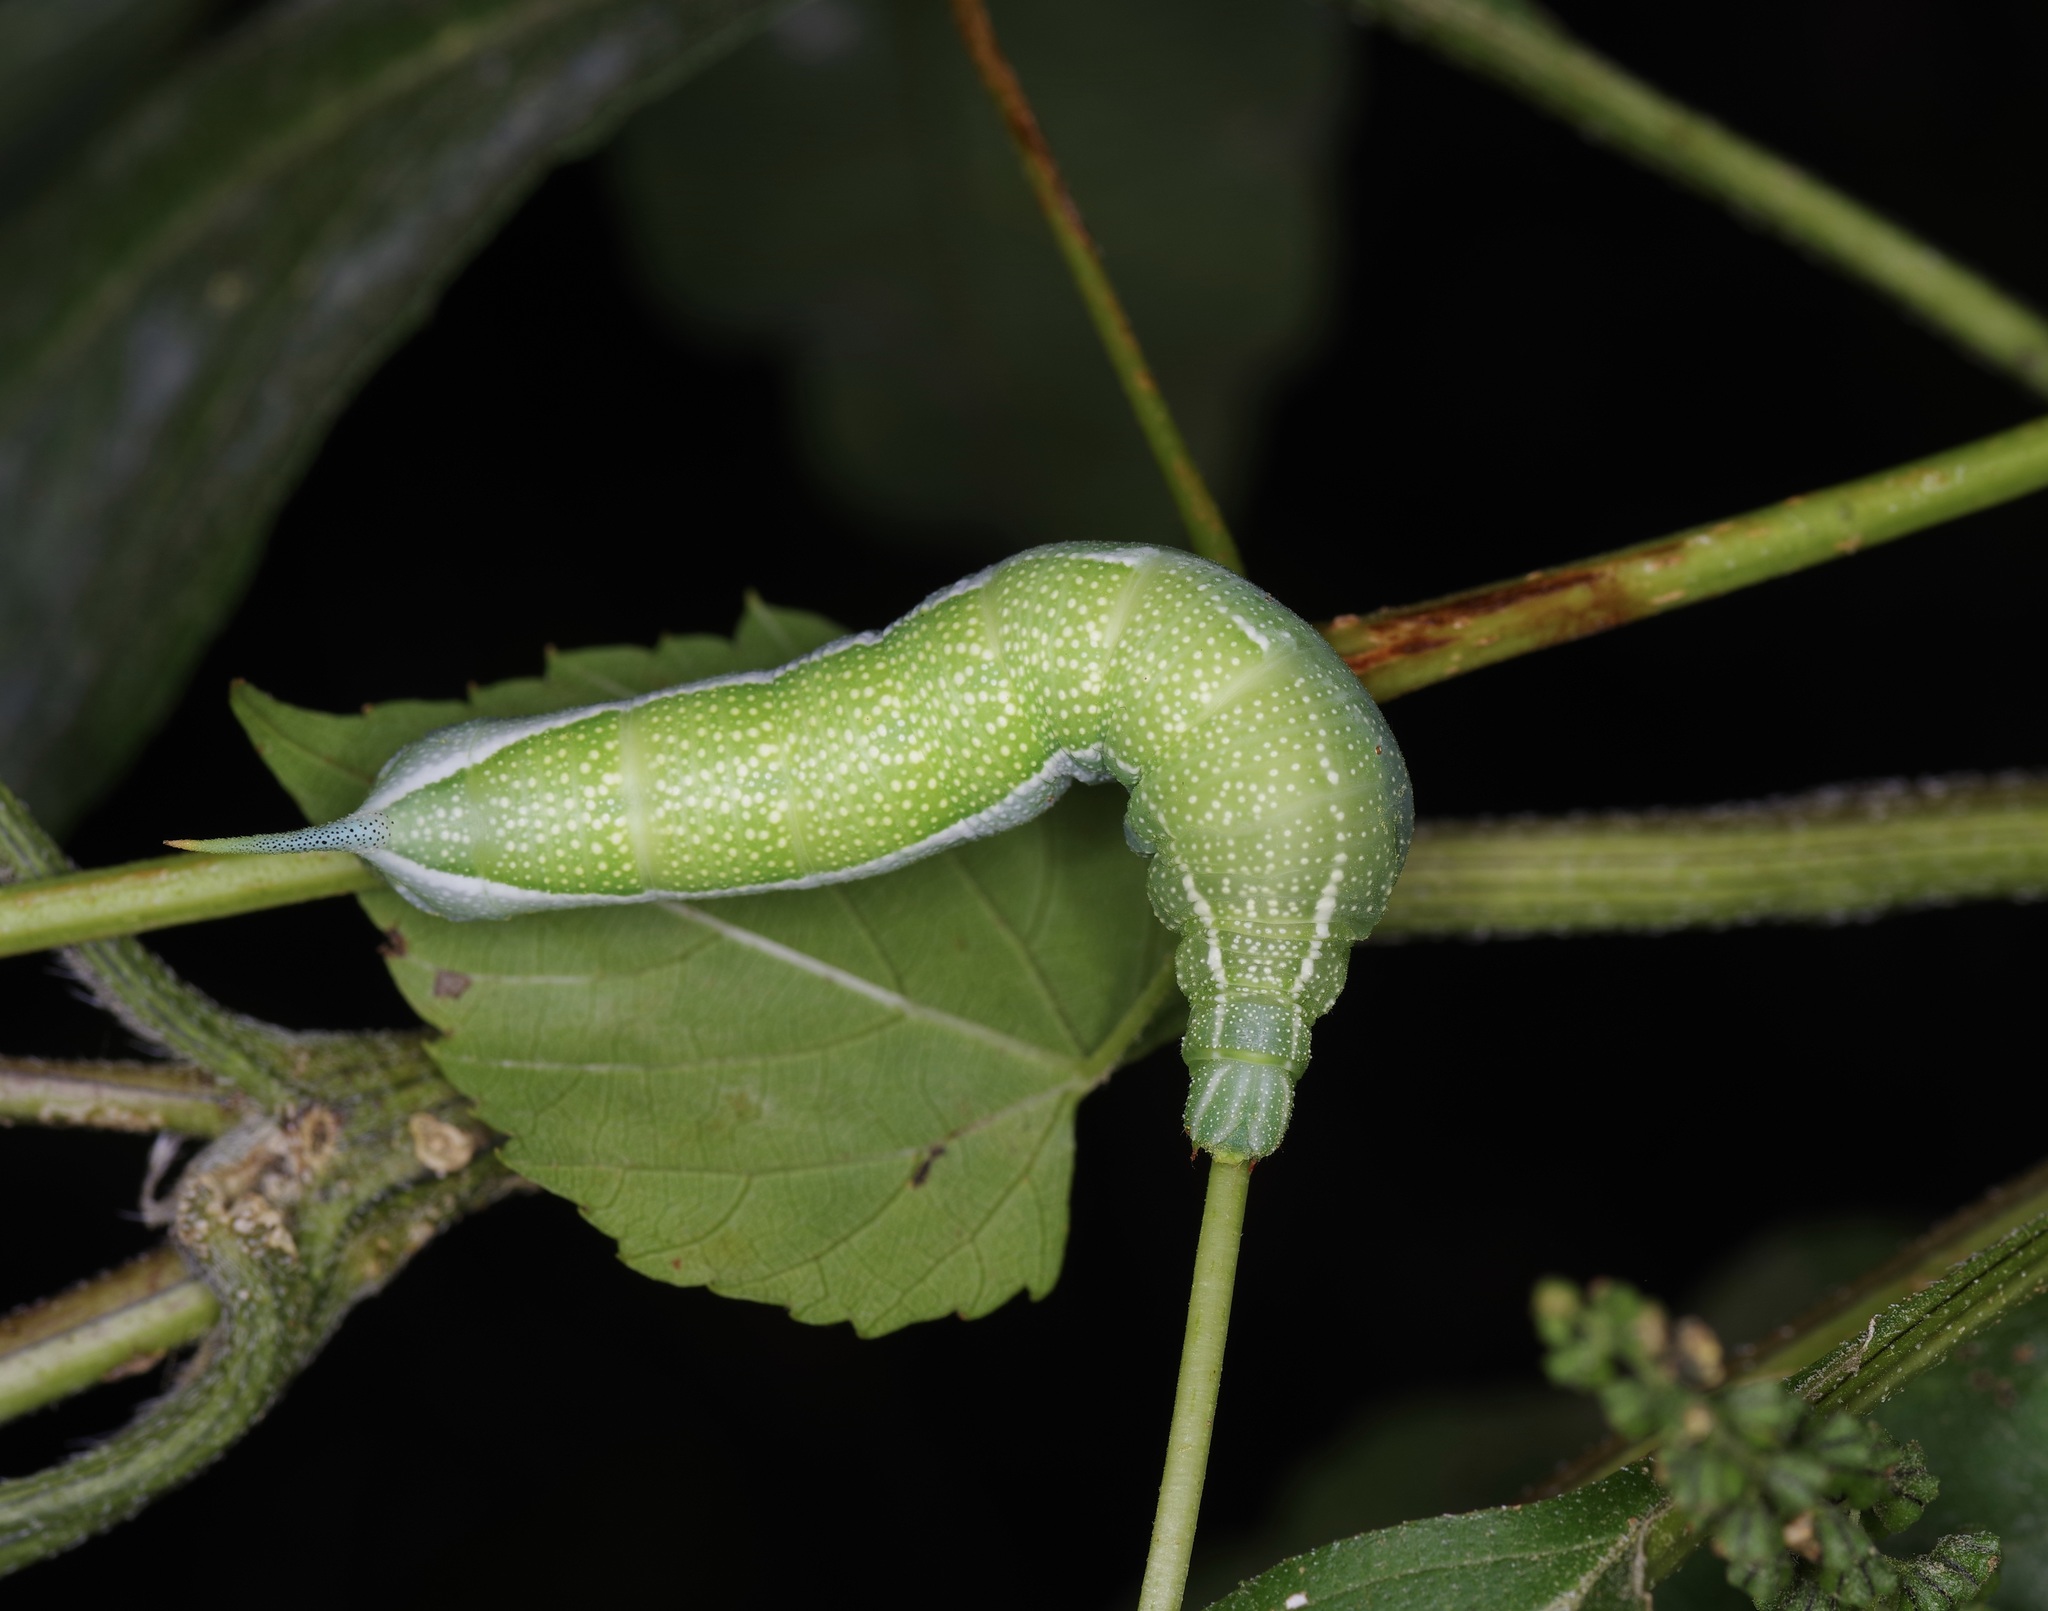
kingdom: Animalia
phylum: Arthropoda
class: Insecta
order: Lepidoptera
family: Sphingidae
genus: Darapsa
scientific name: Darapsa myron
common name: Hog sphinx
